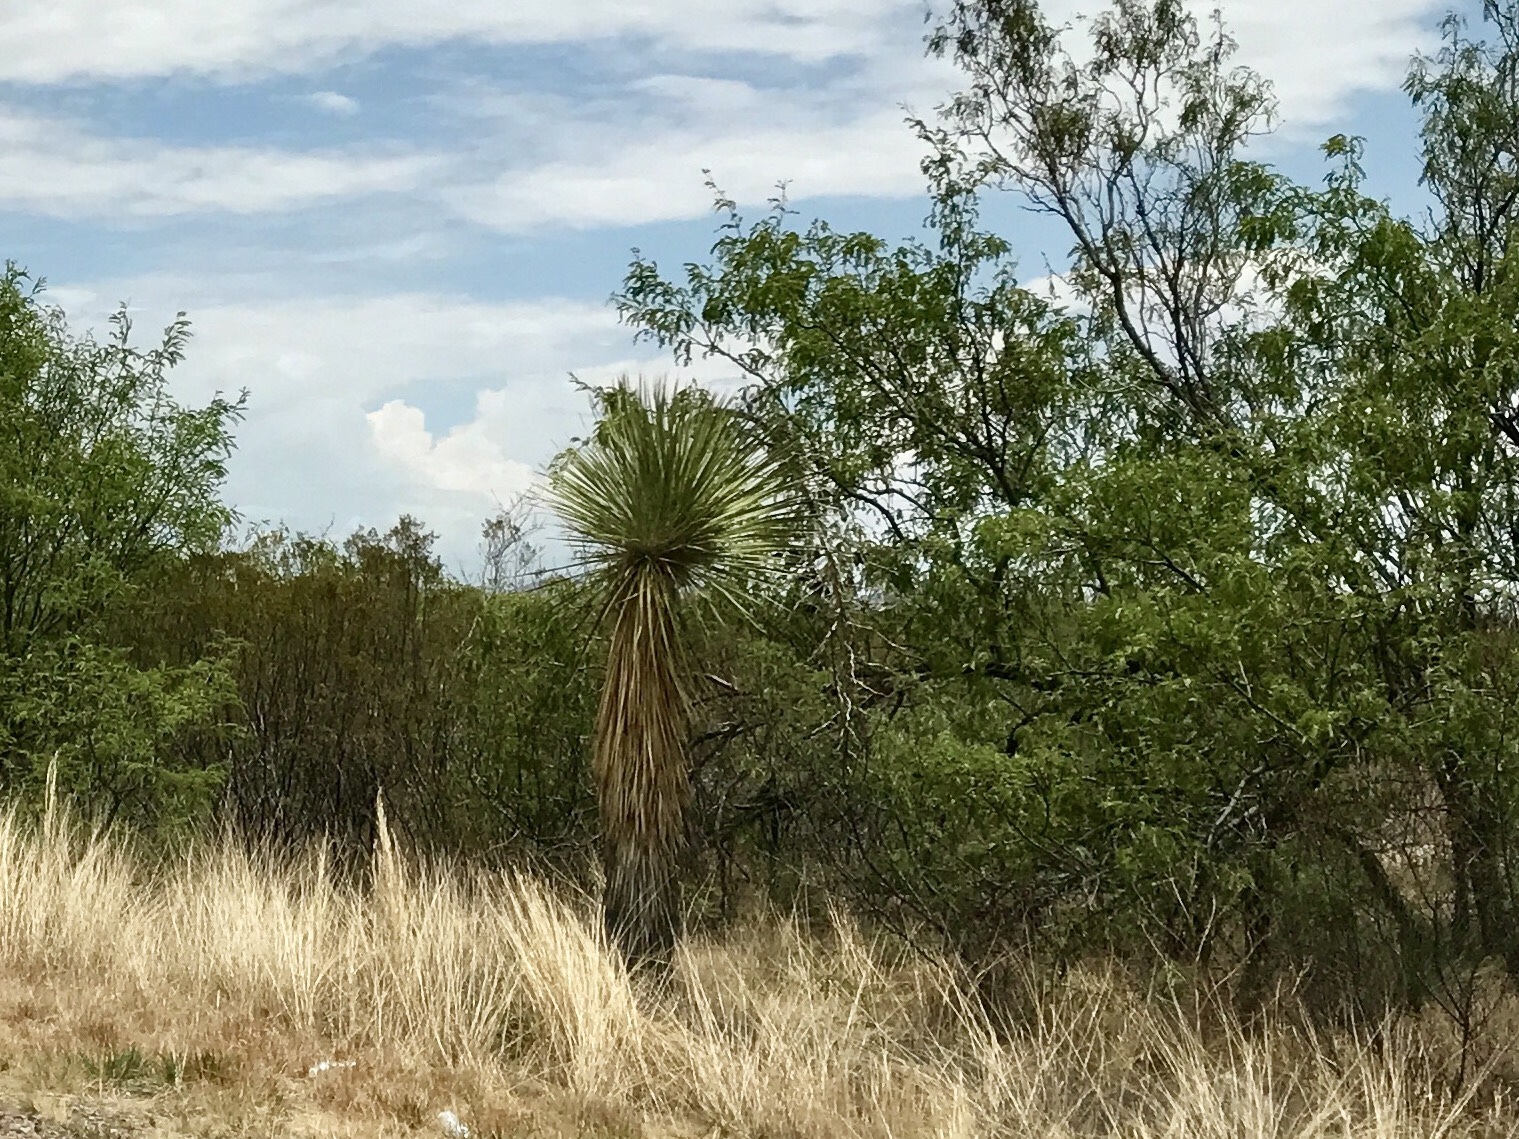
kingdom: Plantae
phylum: Tracheophyta
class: Liliopsida
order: Asparagales
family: Asparagaceae
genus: Yucca
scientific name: Yucca elata
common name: Palmella
